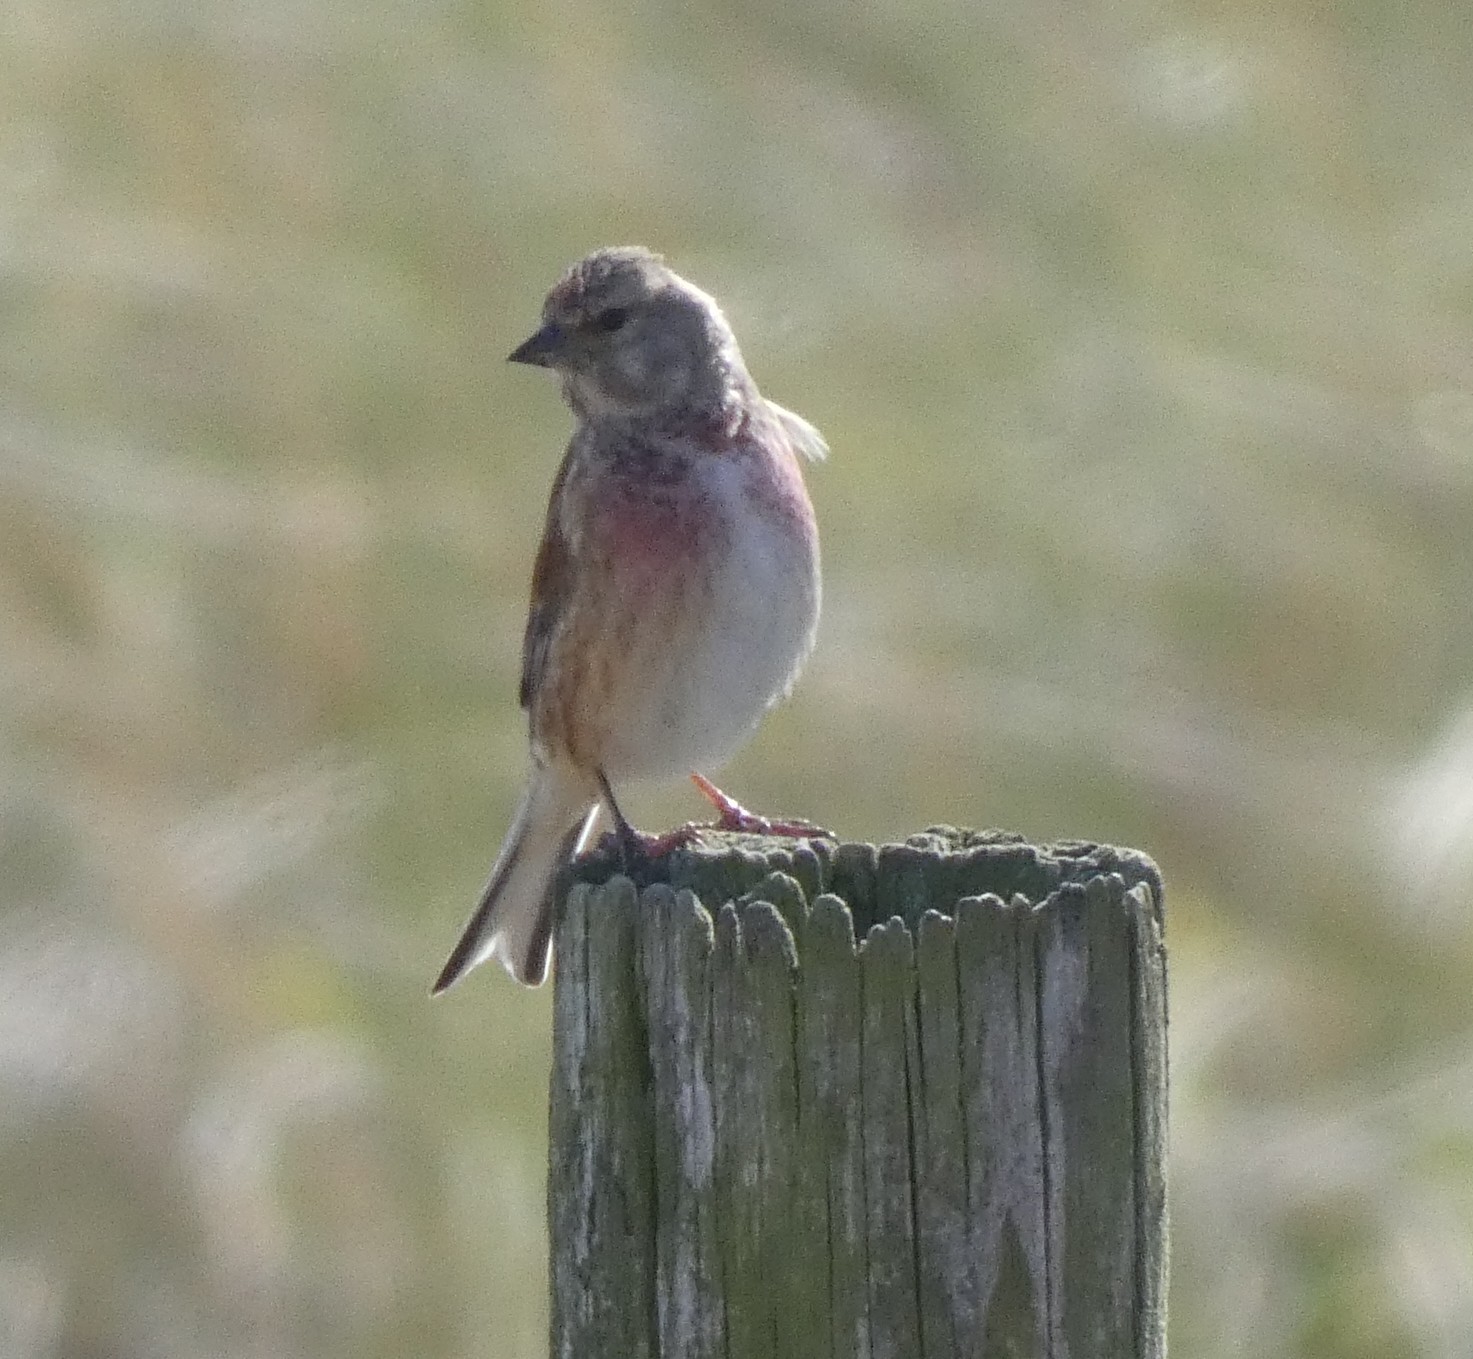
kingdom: Animalia
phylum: Chordata
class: Aves
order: Passeriformes
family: Fringillidae
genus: Linaria
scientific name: Linaria cannabina
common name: Common linnet
